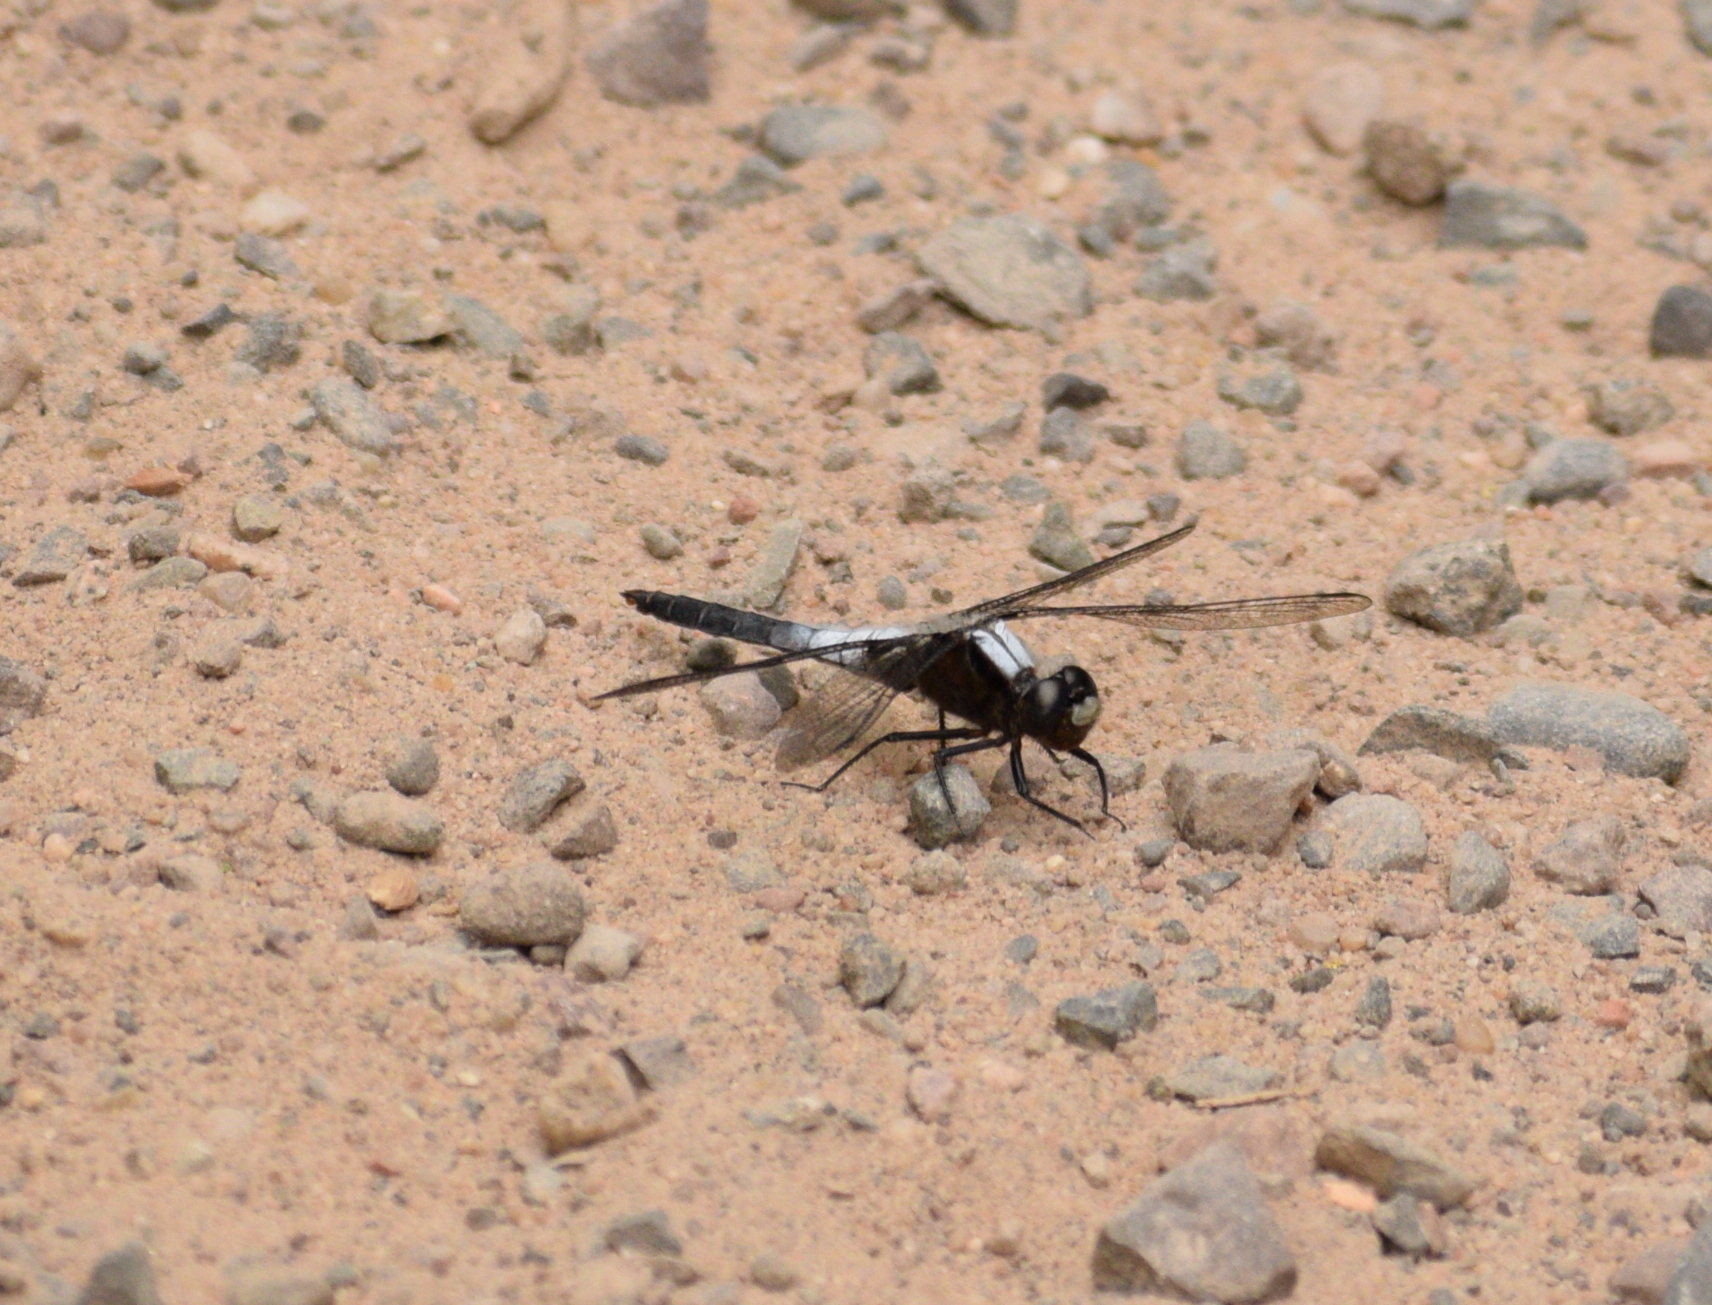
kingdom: Animalia
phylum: Arthropoda
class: Insecta
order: Odonata
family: Libellulidae
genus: Ladona
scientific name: Ladona julia
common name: Chalk-fronted corporal
